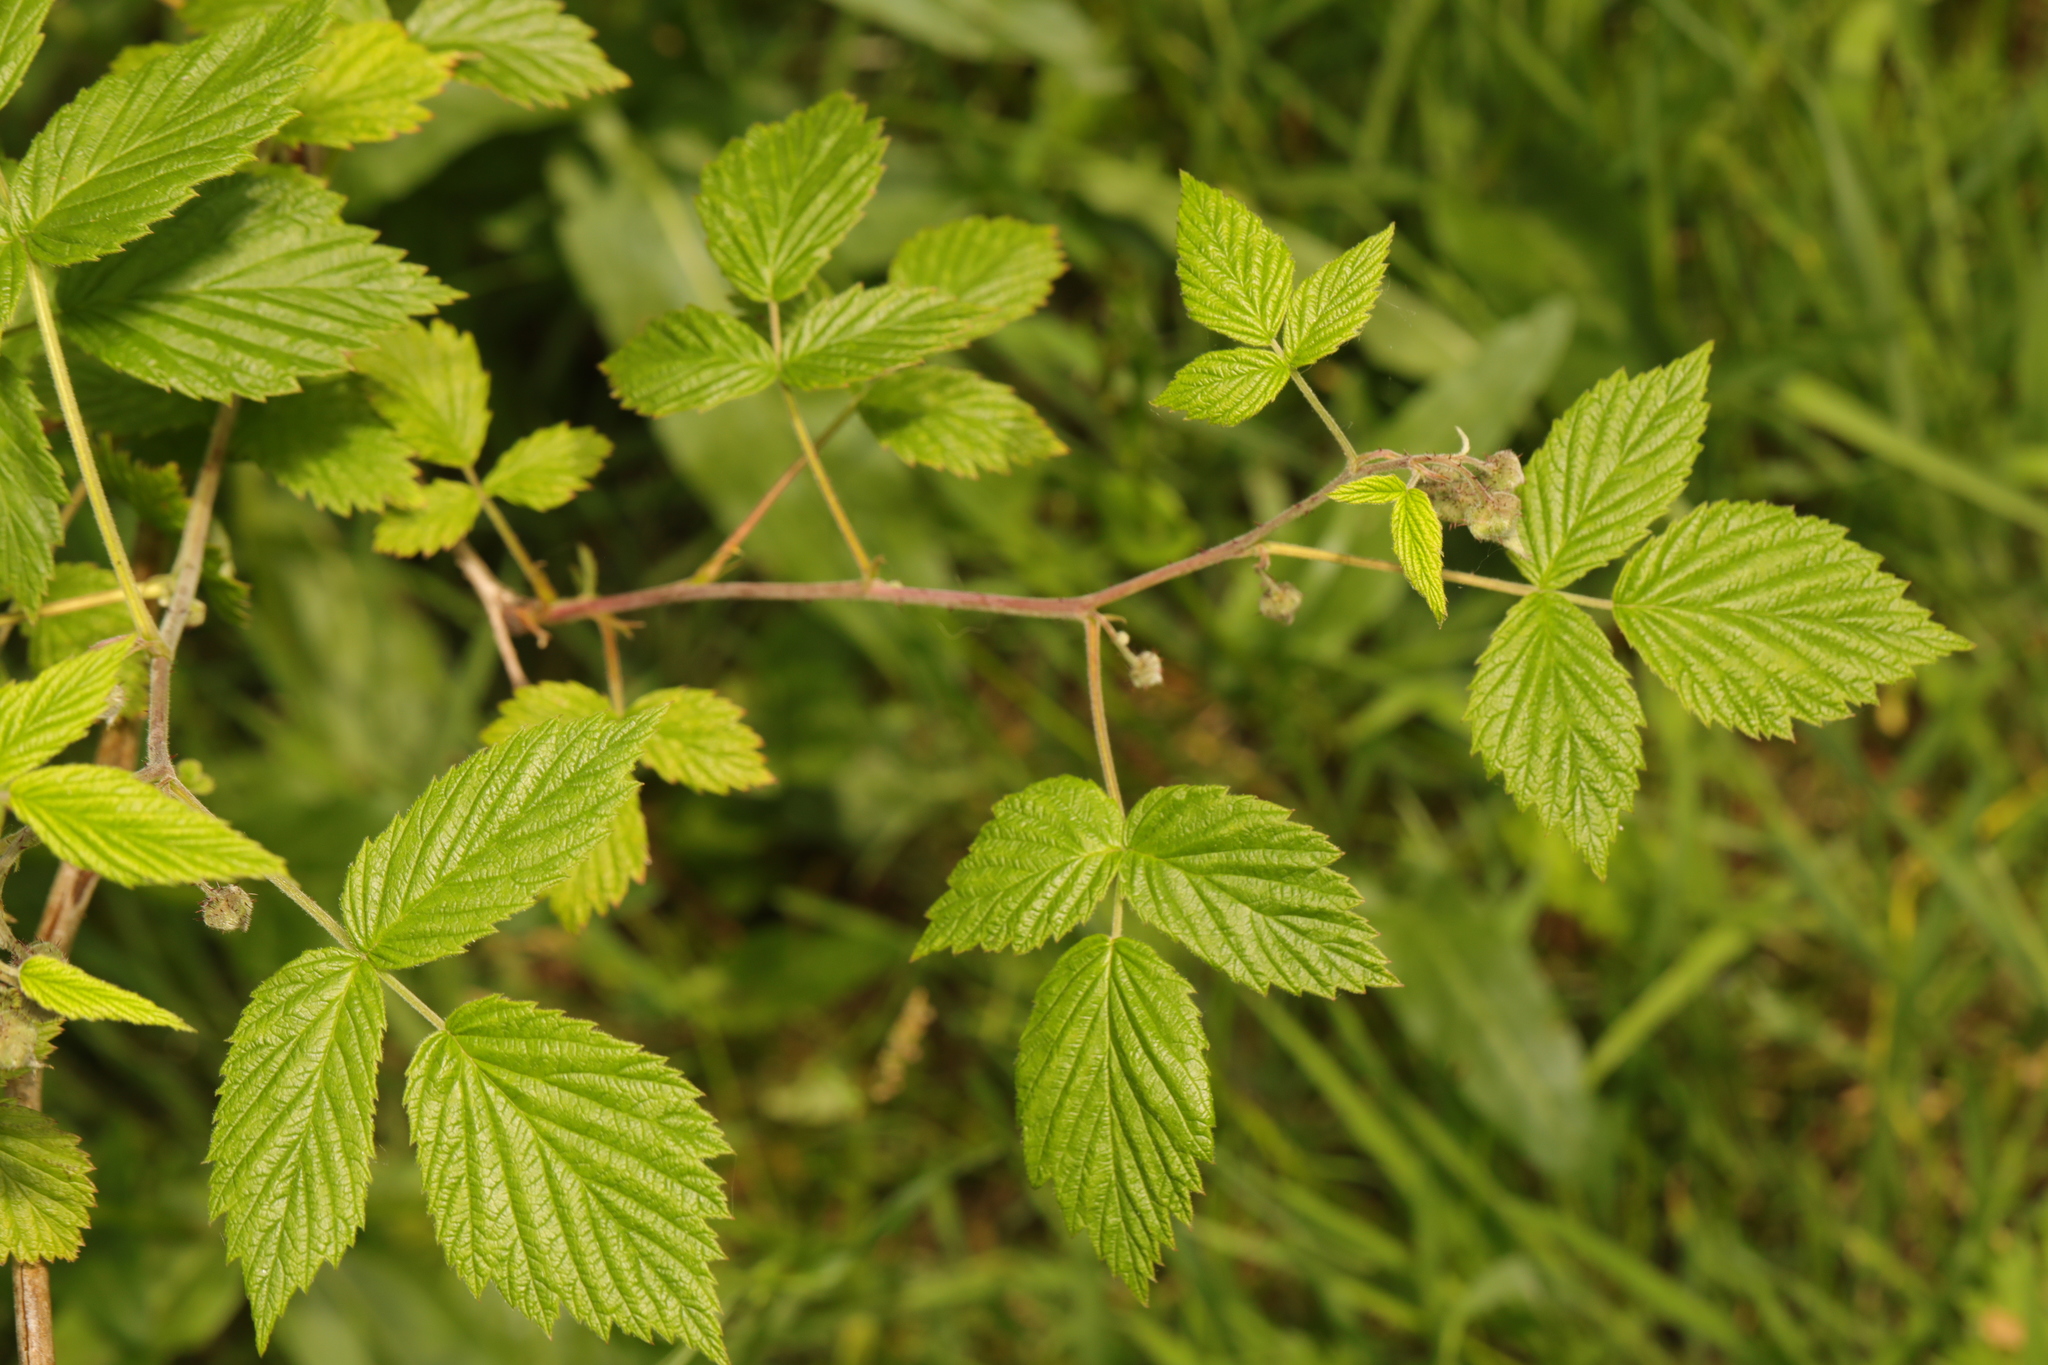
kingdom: Plantae
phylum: Tracheophyta
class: Magnoliopsida
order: Rosales
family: Rosaceae
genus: Rubus
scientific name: Rubus idaeus
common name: Raspberry
